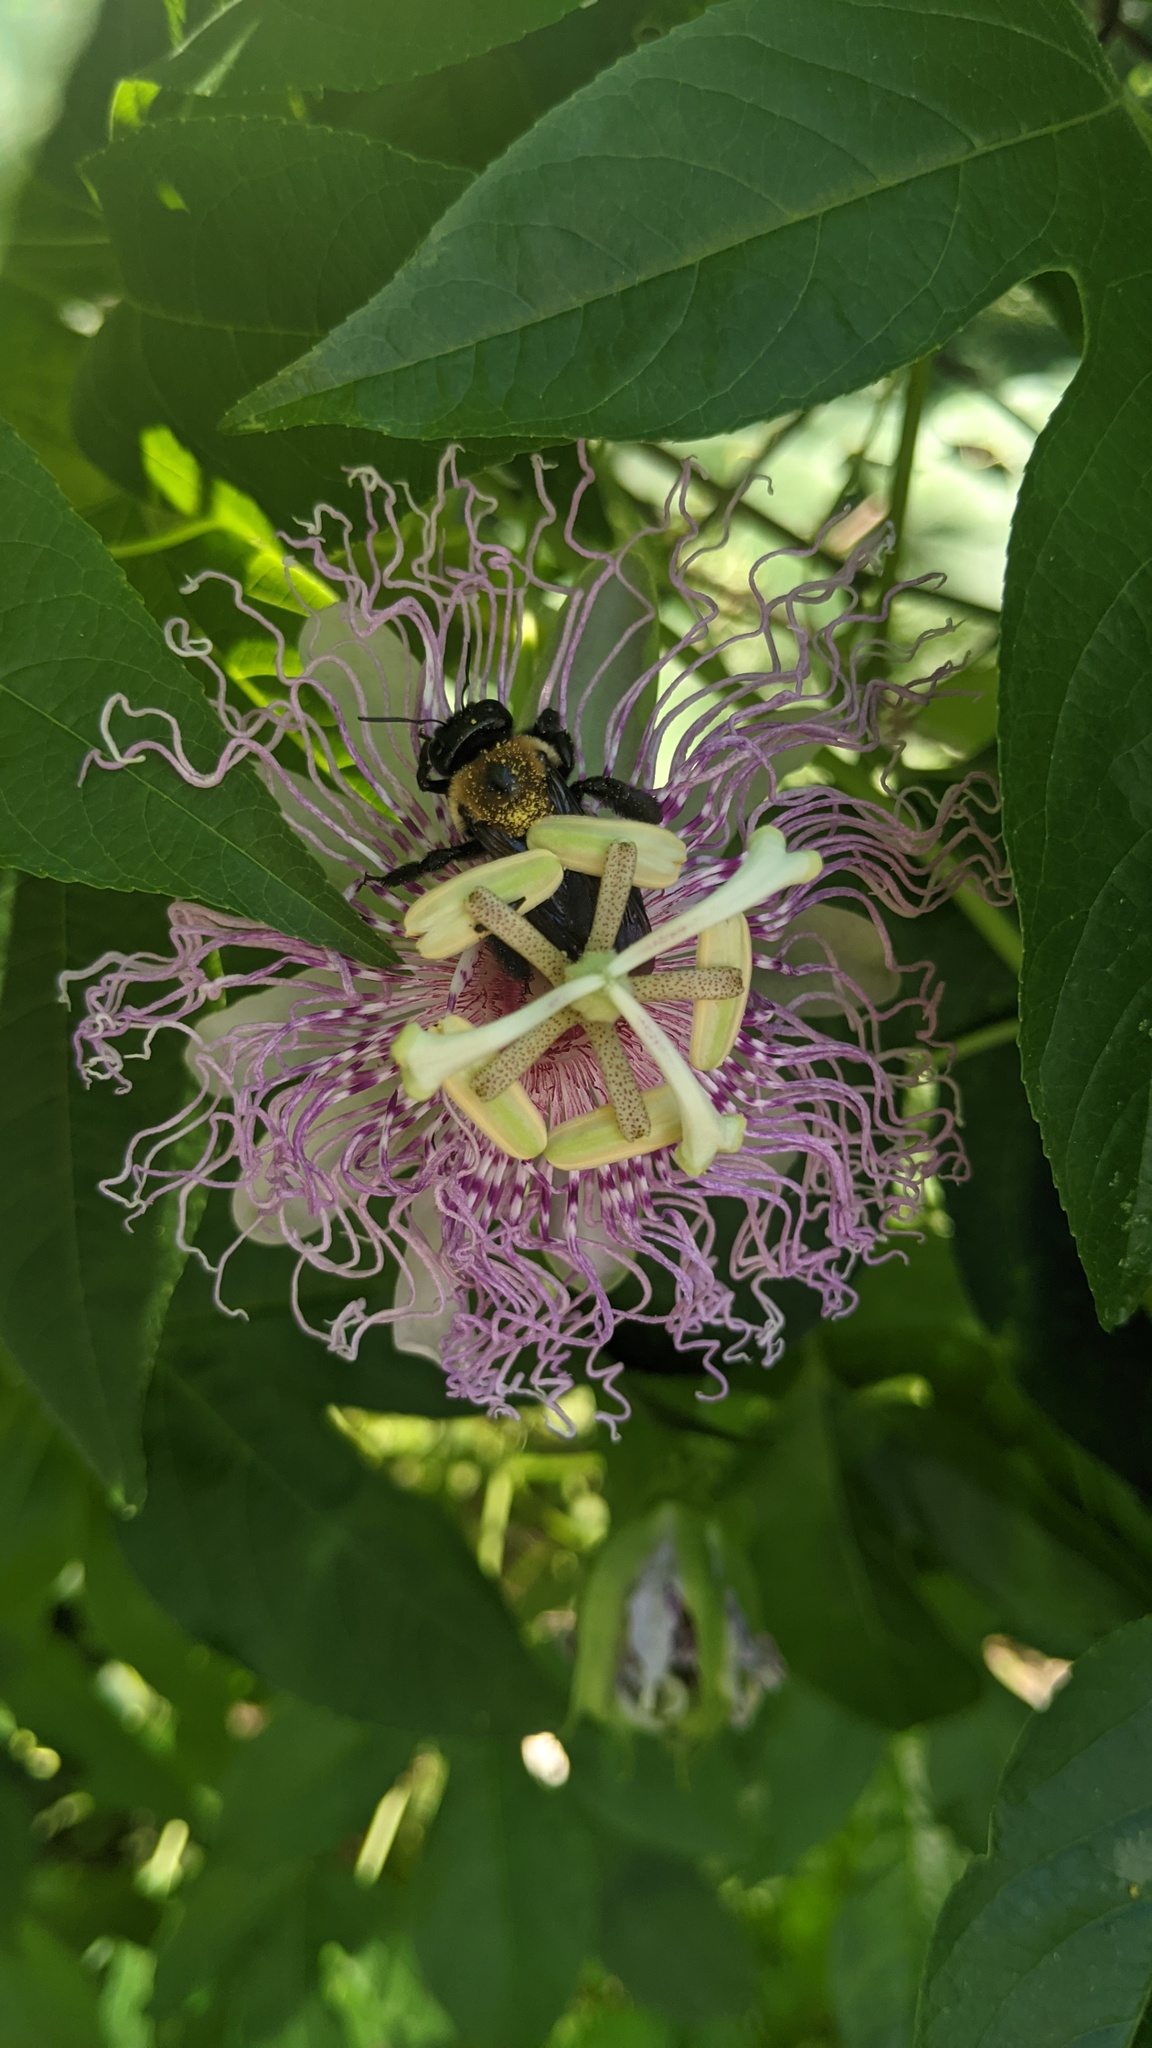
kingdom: Animalia
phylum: Arthropoda
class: Insecta
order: Hymenoptera
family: Apidae
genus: Xylocopa
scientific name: Xylocopa virginica
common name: Carpenter bee
